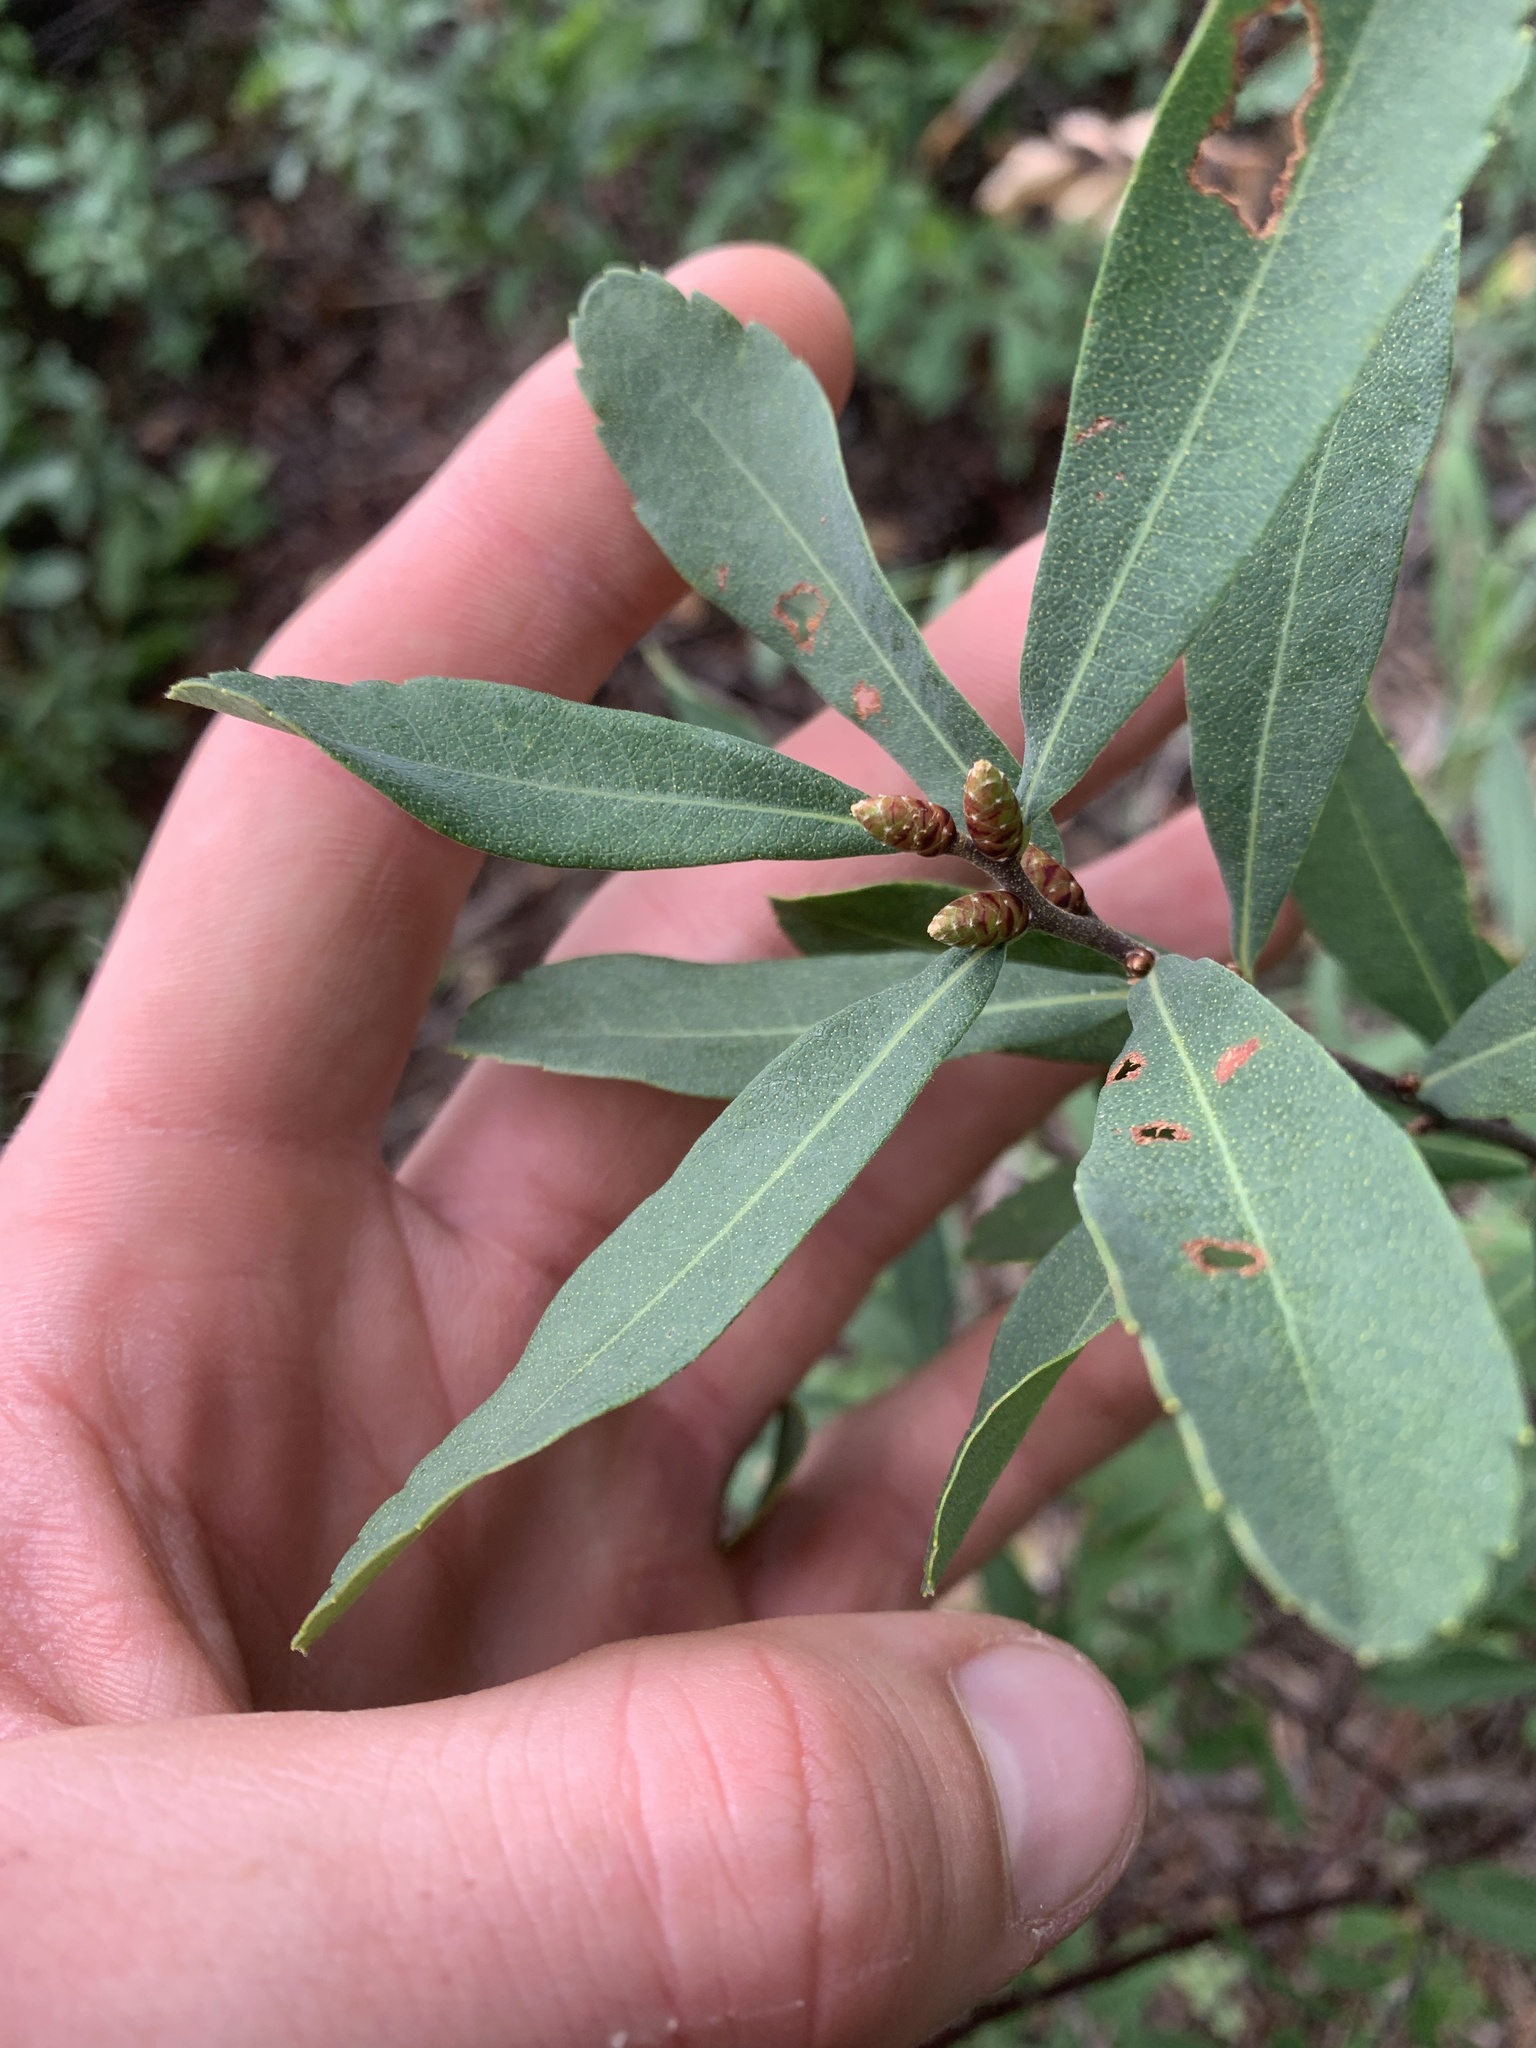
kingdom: Plantae
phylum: Tracheophyta
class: Magnoliopsida
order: Fagales
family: Myricaceae
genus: Myrica
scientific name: Myrica gale
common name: Sweet gale
